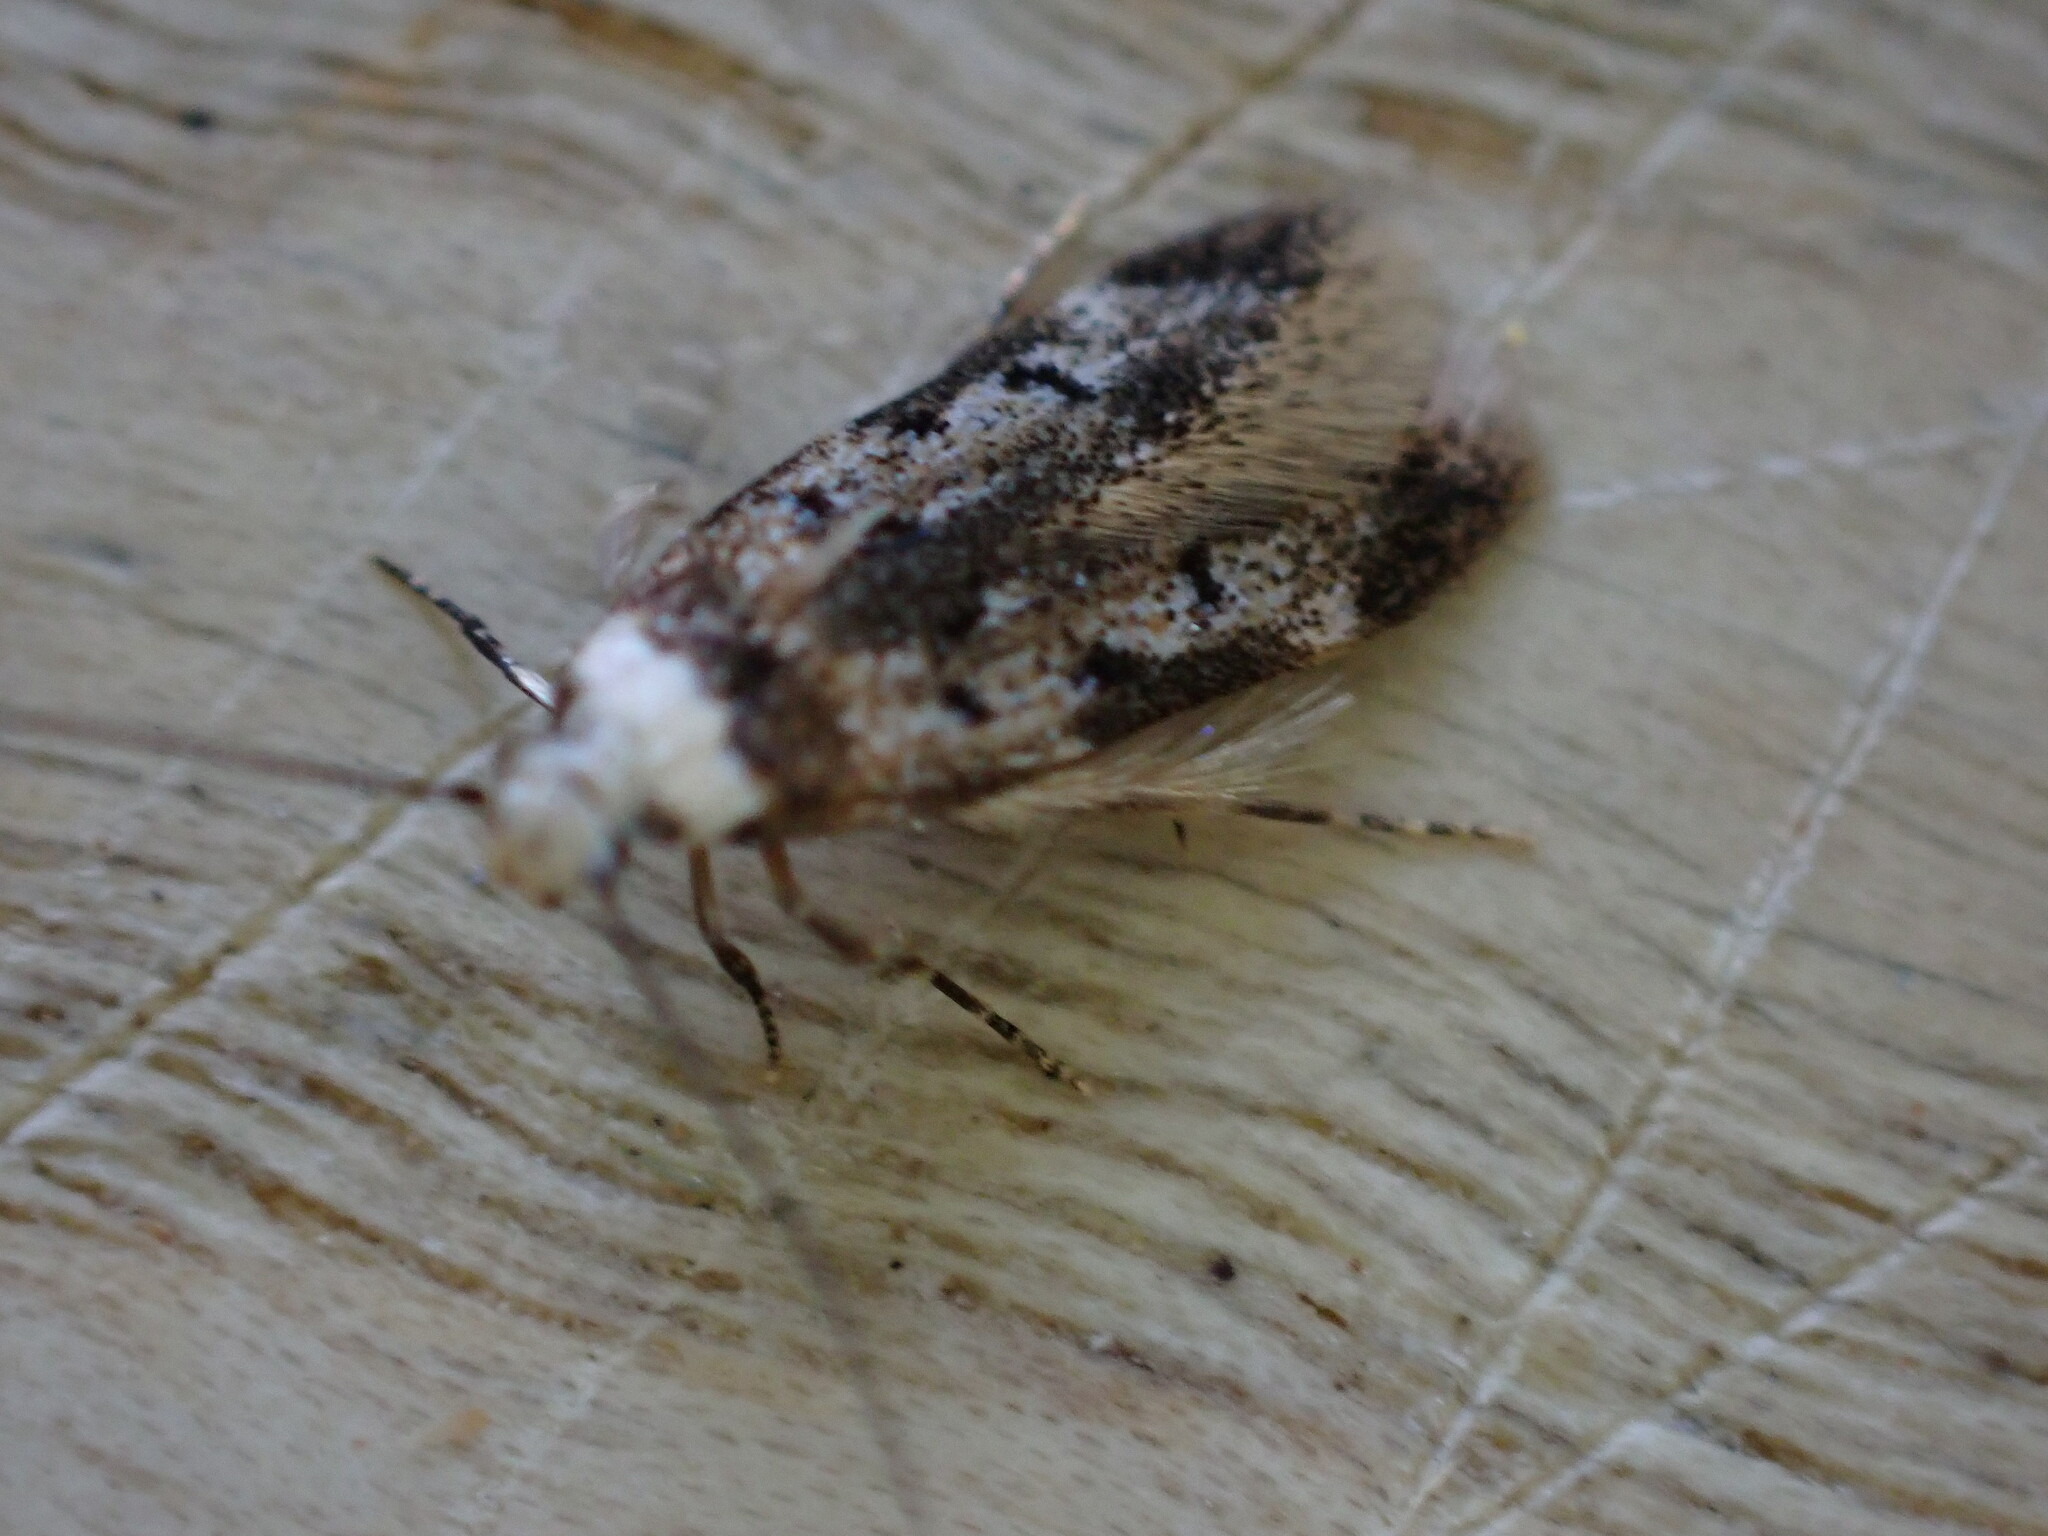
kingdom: Animalia
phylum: Arthropoda
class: Insecta
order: Lepidoptera
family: Oecophoridae
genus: Endrosis
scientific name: Endrosis sarcitrella
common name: White-shouldered house moth
